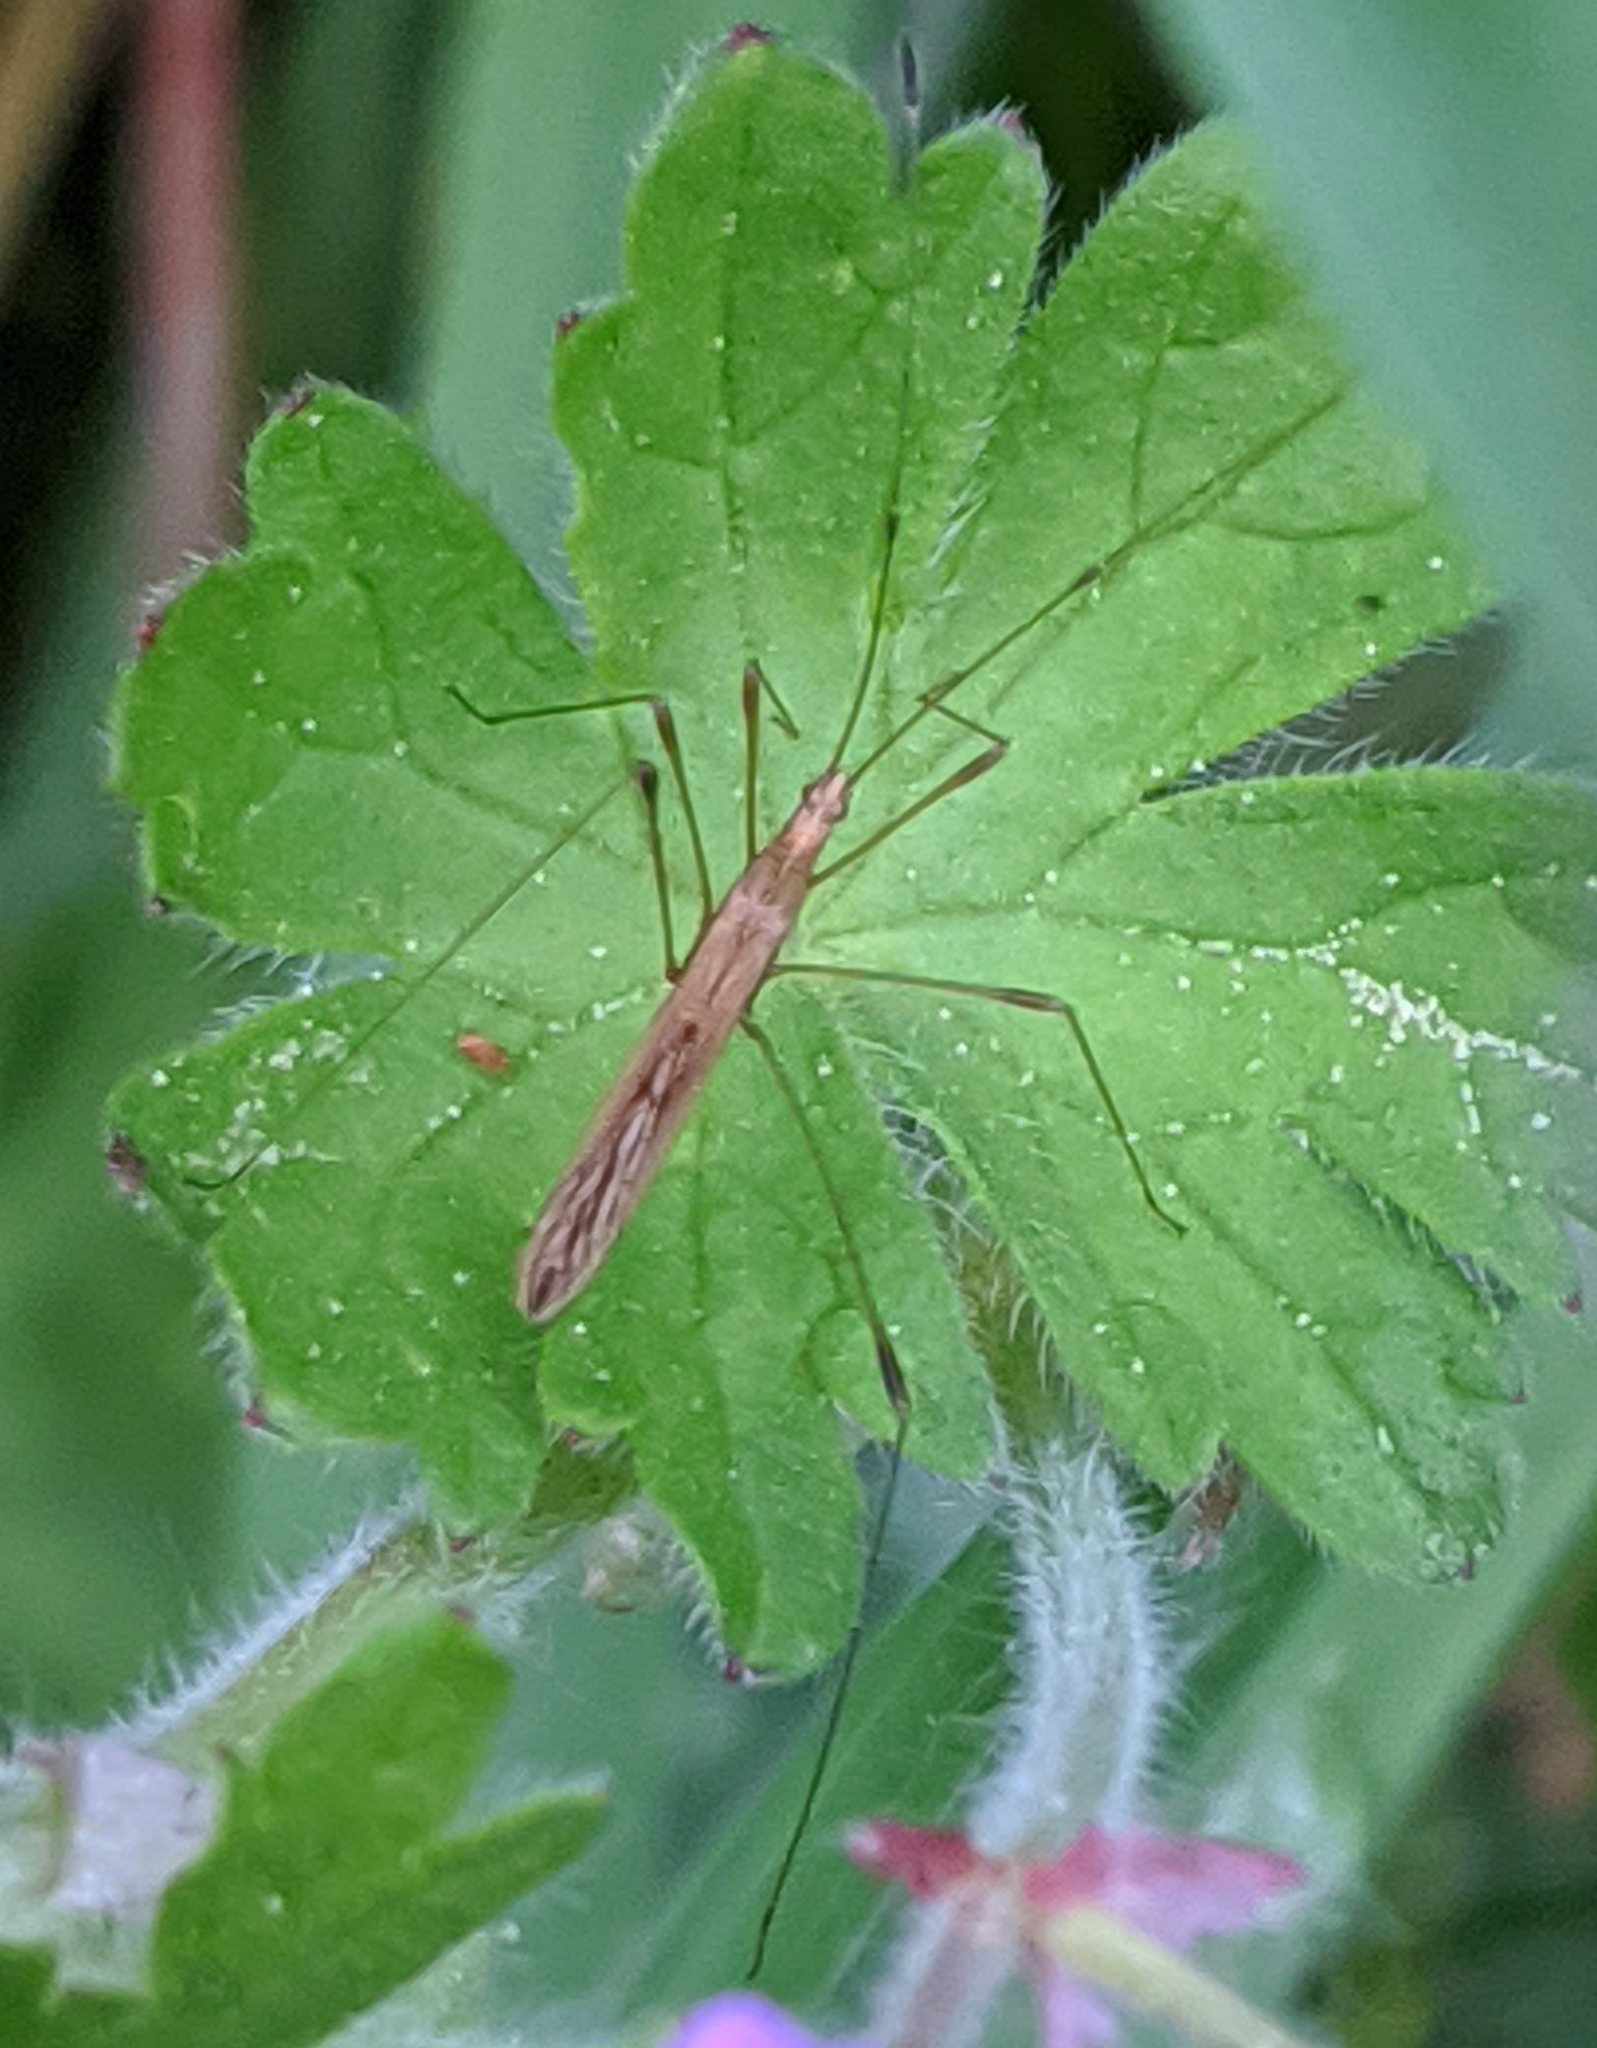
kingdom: Animalia
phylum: Arthropoda
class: Insecta
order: Hemiptera
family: Berytidae
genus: Neoneides
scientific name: Neoneides muticus
